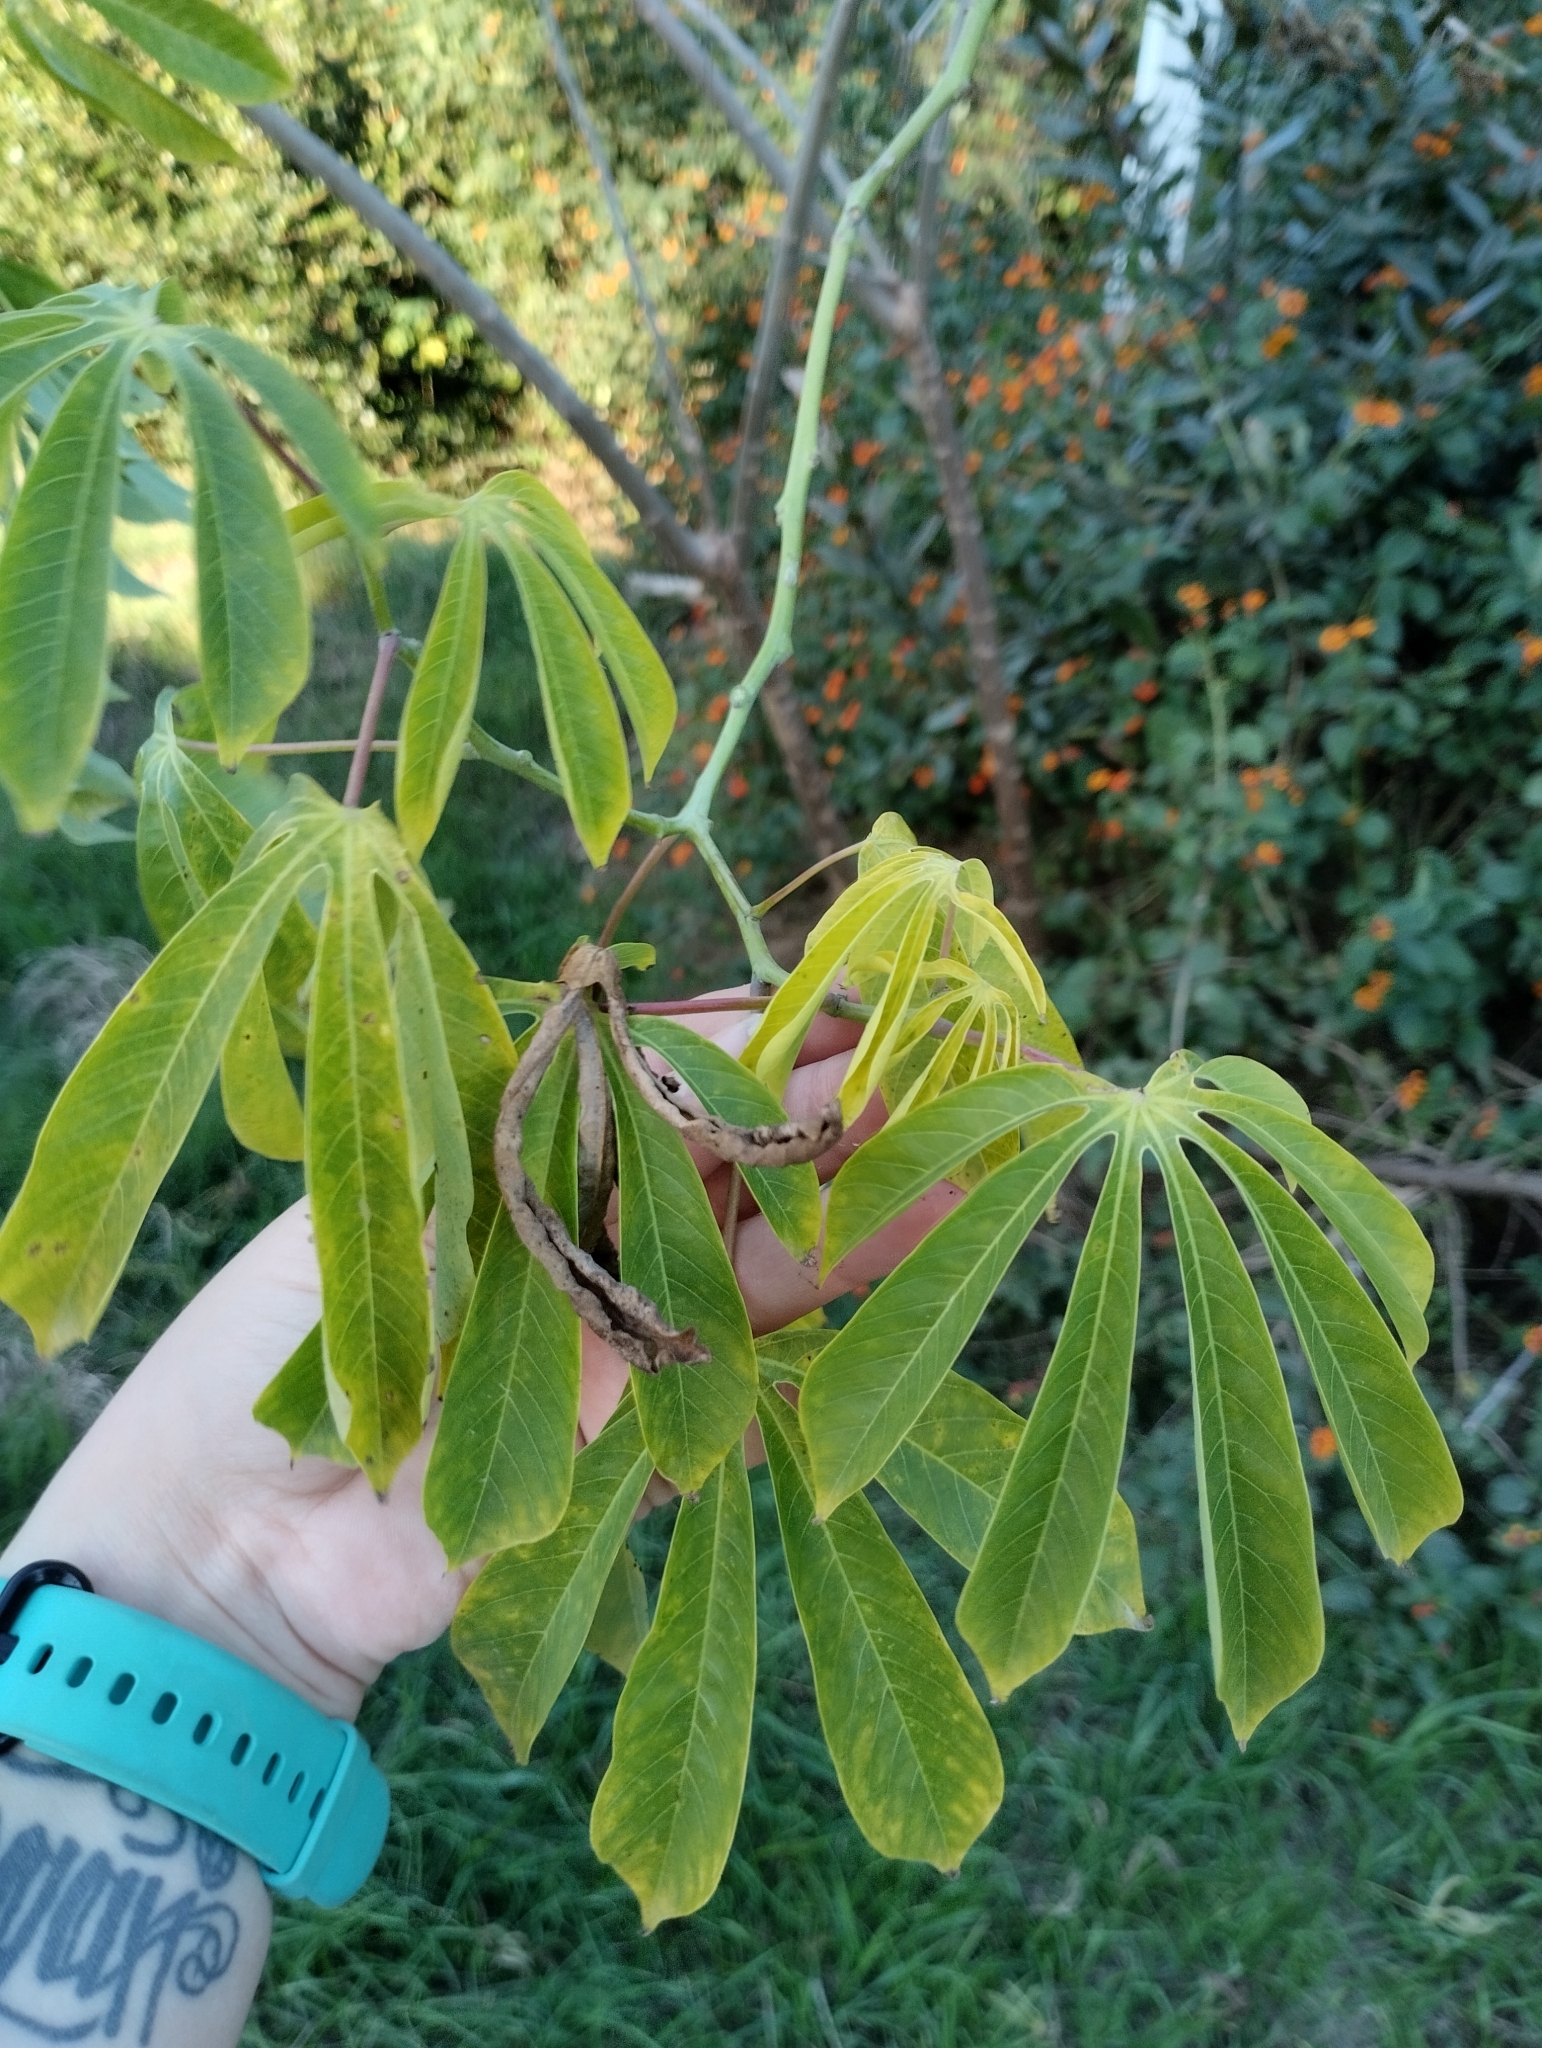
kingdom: Plantae
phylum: Tracheophyta
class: Magnoliopsida
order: Malpighiales
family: Euphorbiaceae
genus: Manihot
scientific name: Manihot grahamii
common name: Graham's manihot
